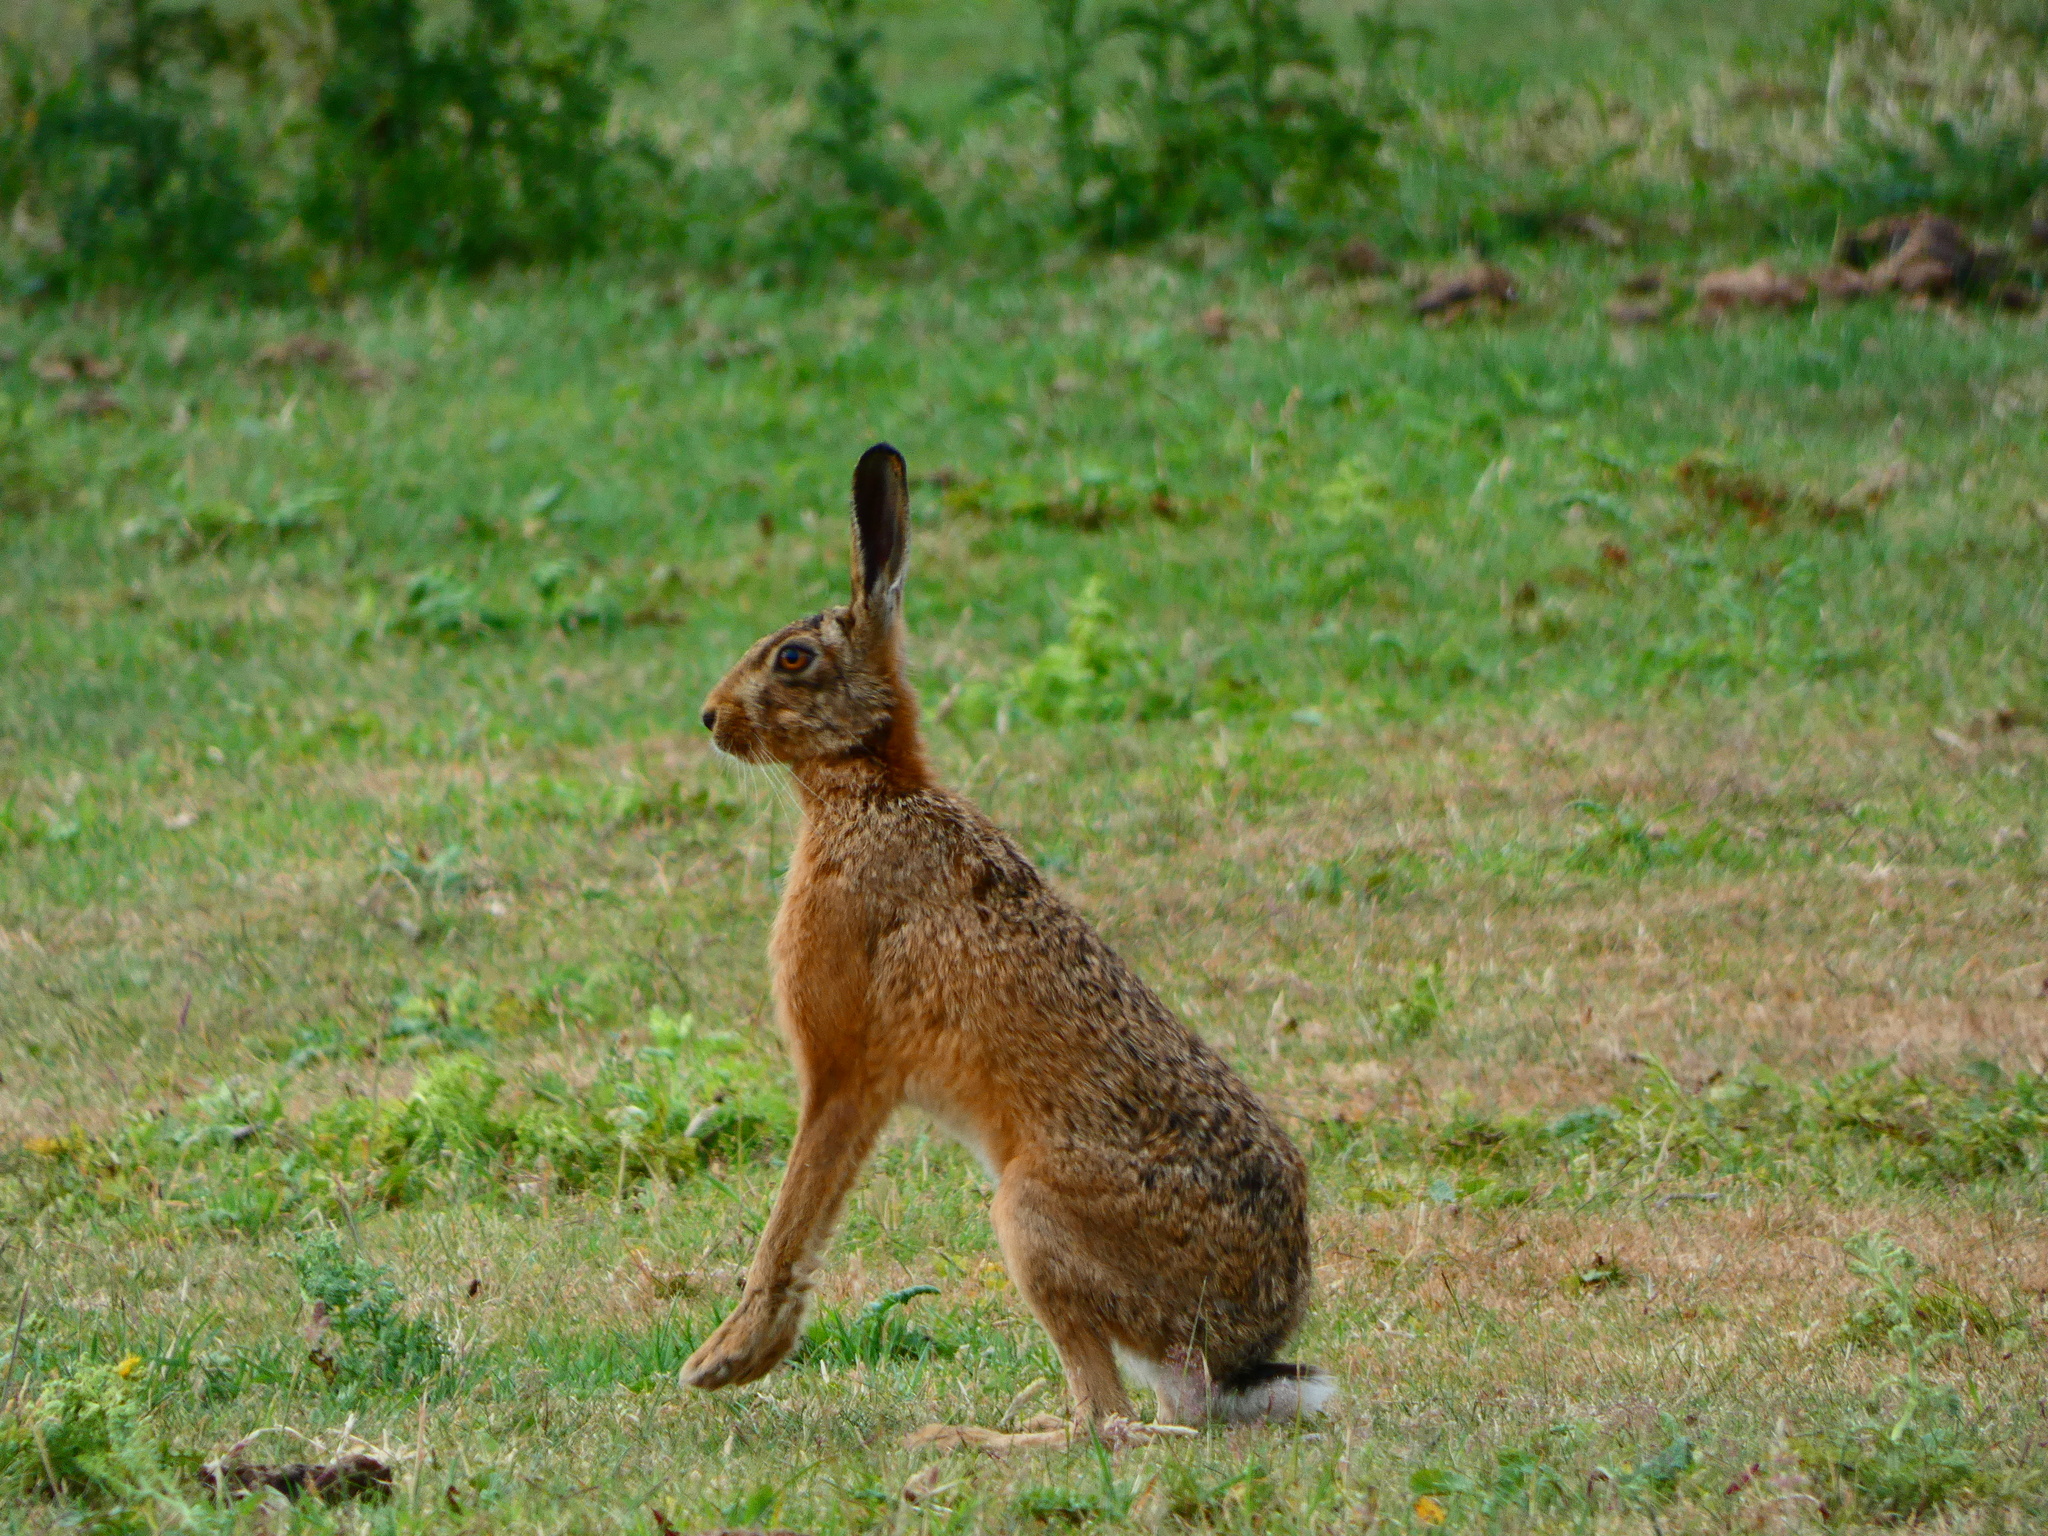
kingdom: Animalia
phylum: Chordata
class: Mammalia
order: Lagomorpha
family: Leporidae
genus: Lepus
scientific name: Lepus europaeus
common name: European hare
